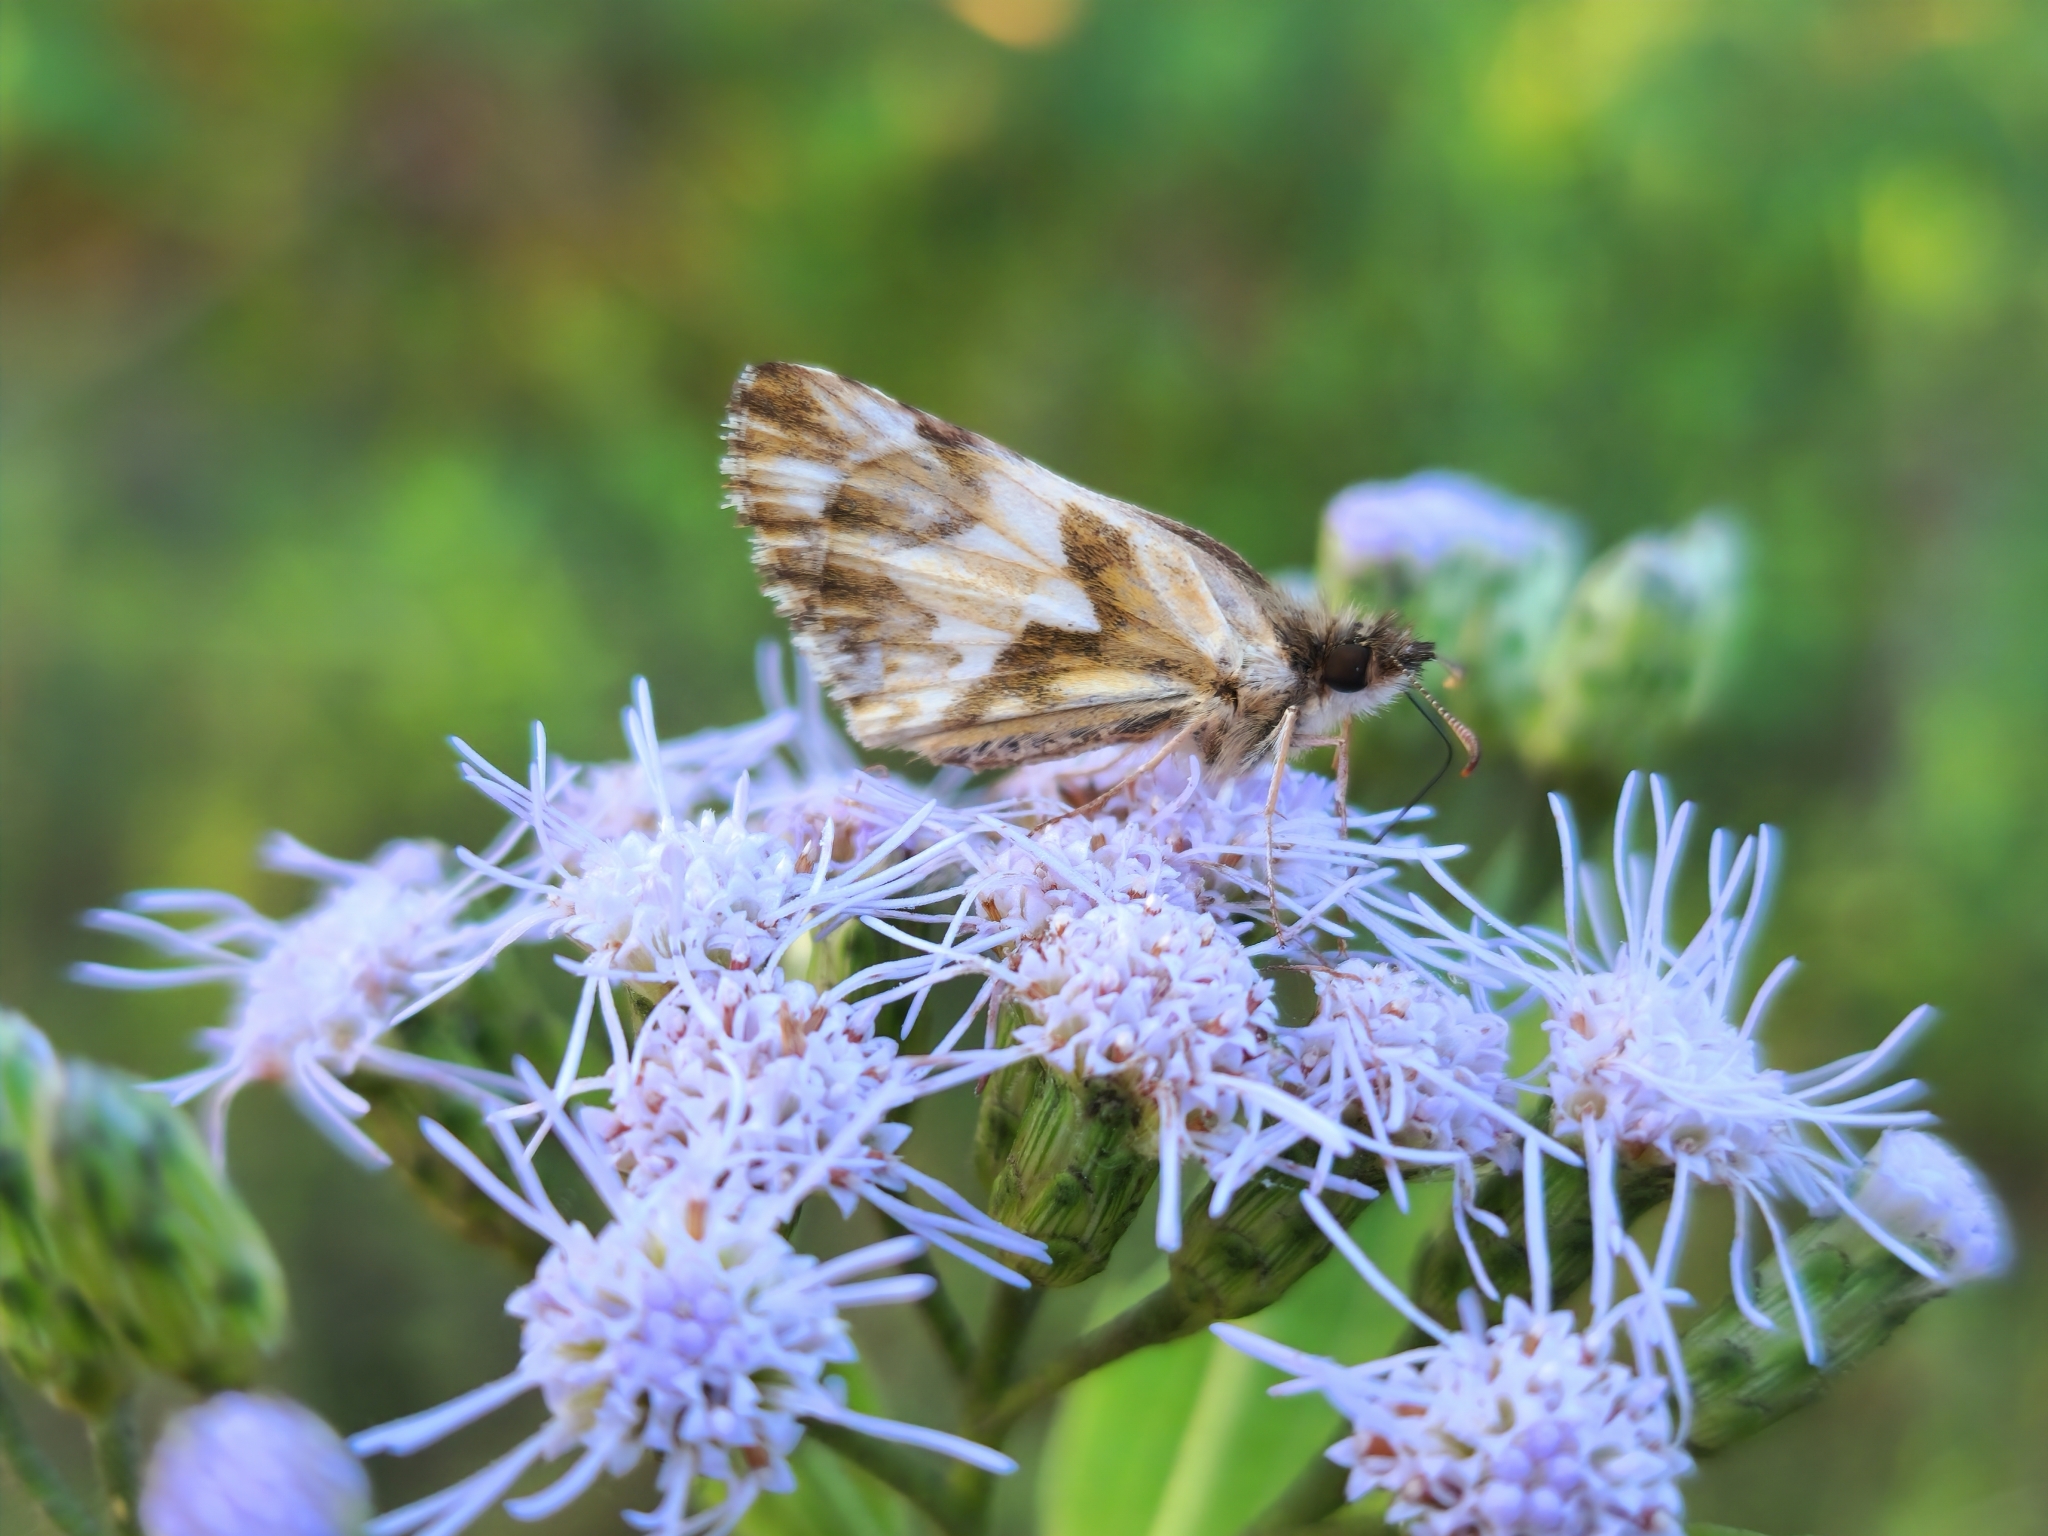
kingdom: Animalia
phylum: Arthropoda
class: Insecta
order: Lepidoptera
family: Hesperiidae
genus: Heliopetes
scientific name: Heliopetes omrina
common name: Stained white-skipper
